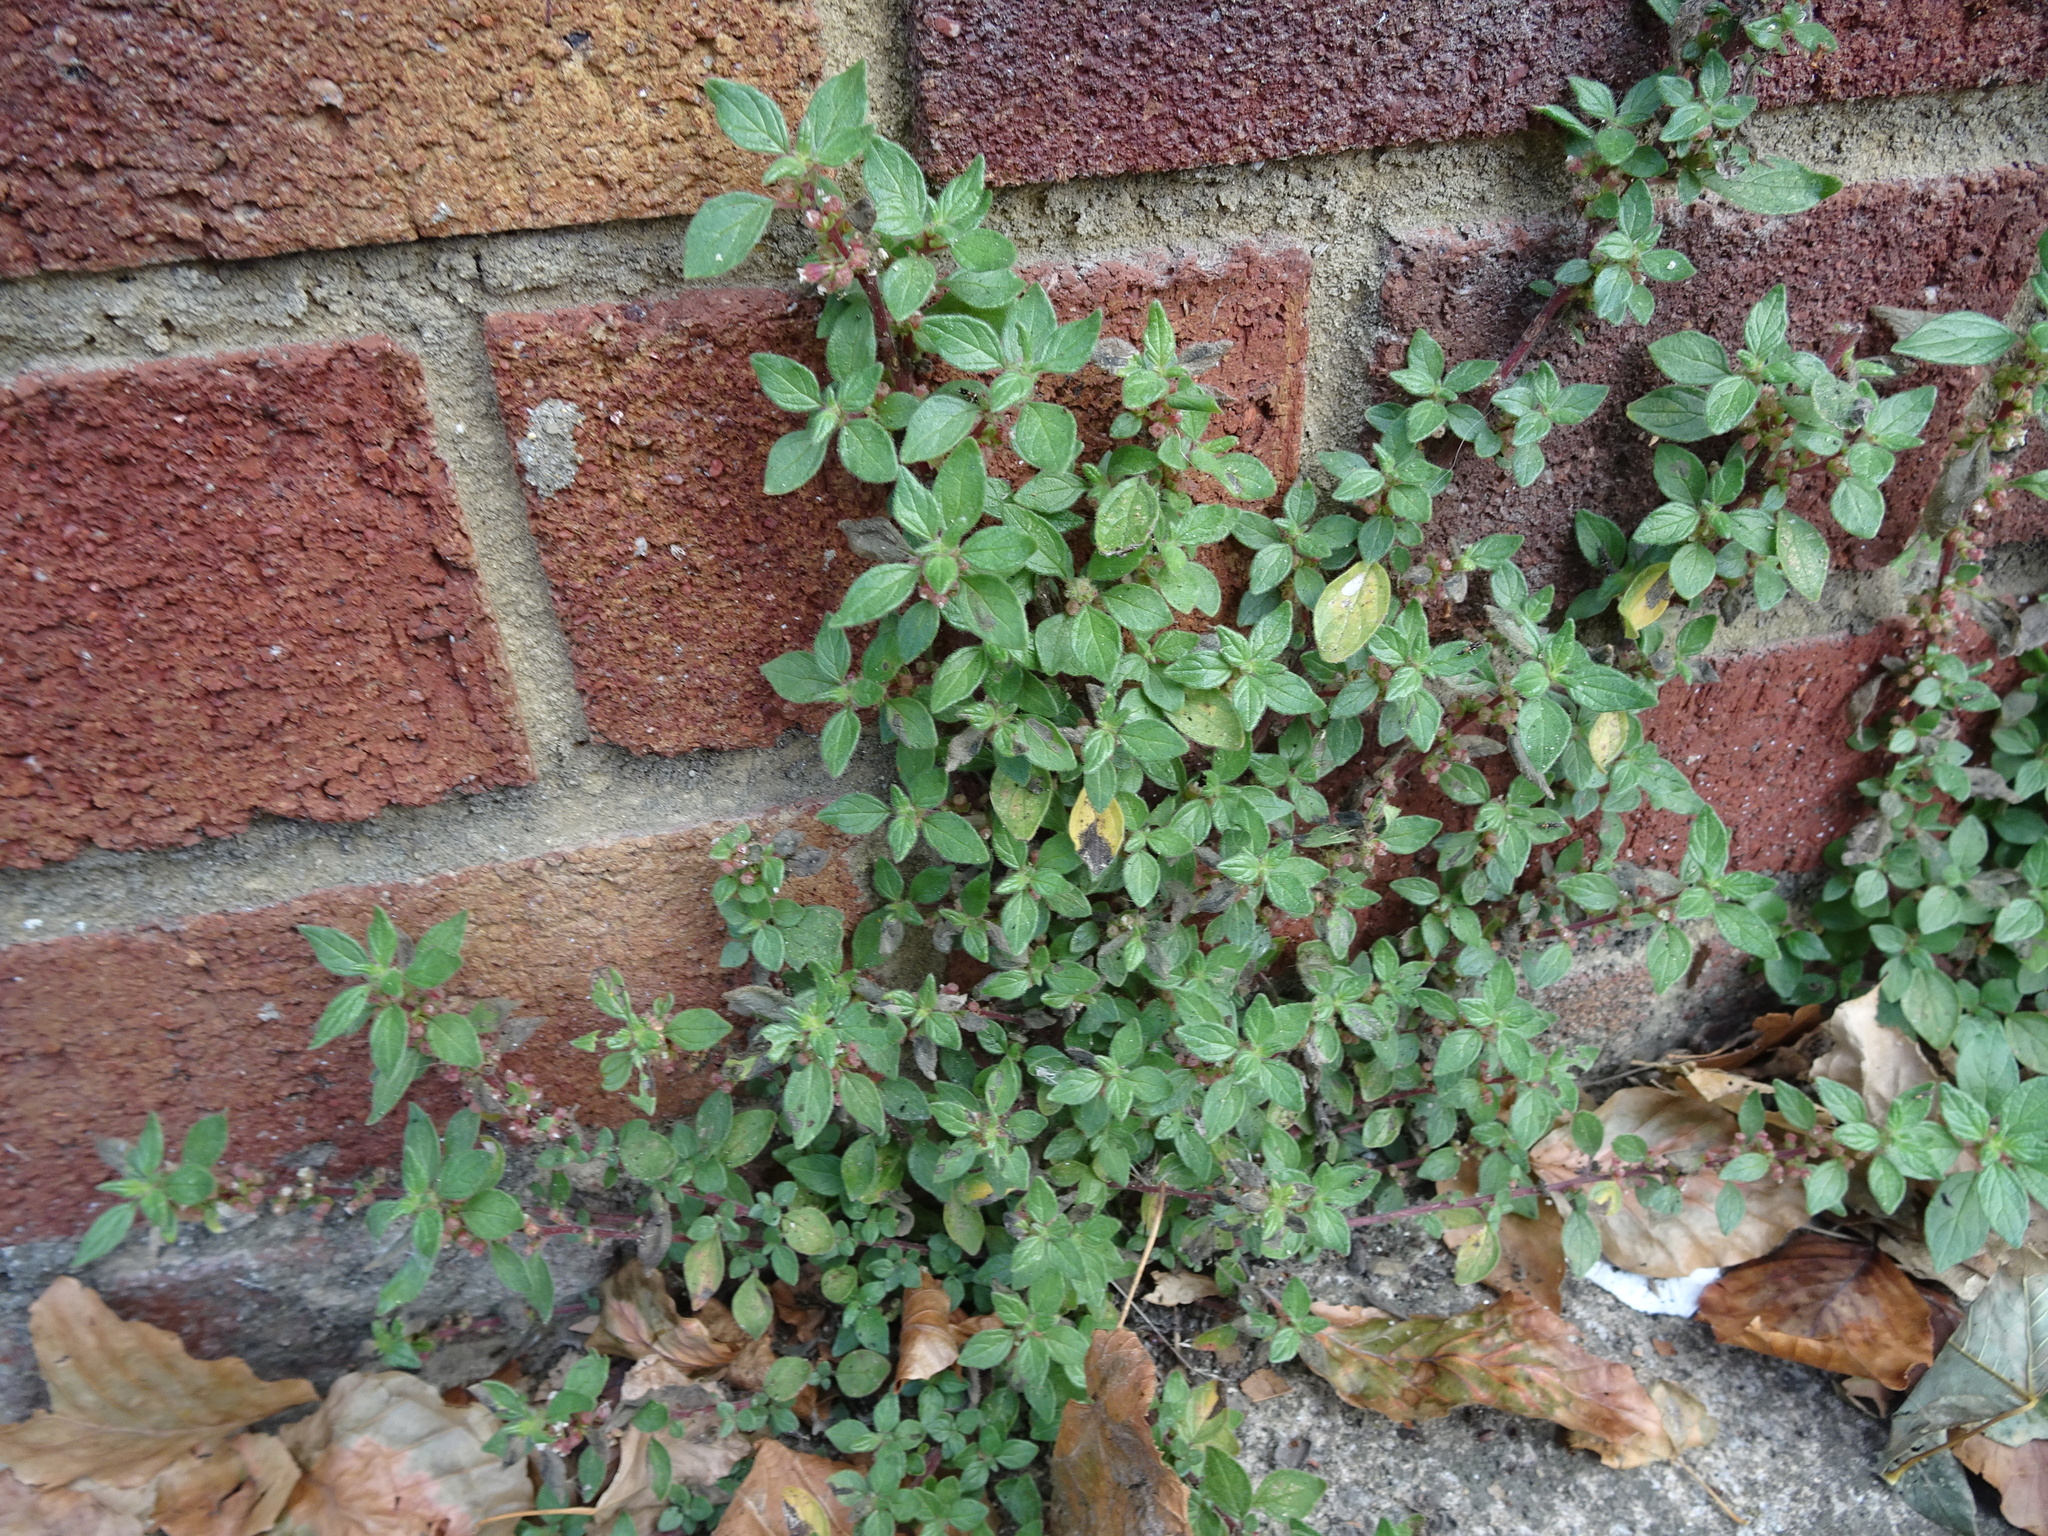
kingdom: Plantae
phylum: Tracheophyta
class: Magnoliopsida
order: Rosales
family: Urticaceae
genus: Parietaria
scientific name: Parietaria judaica
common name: Pellitory-of-the-wall
